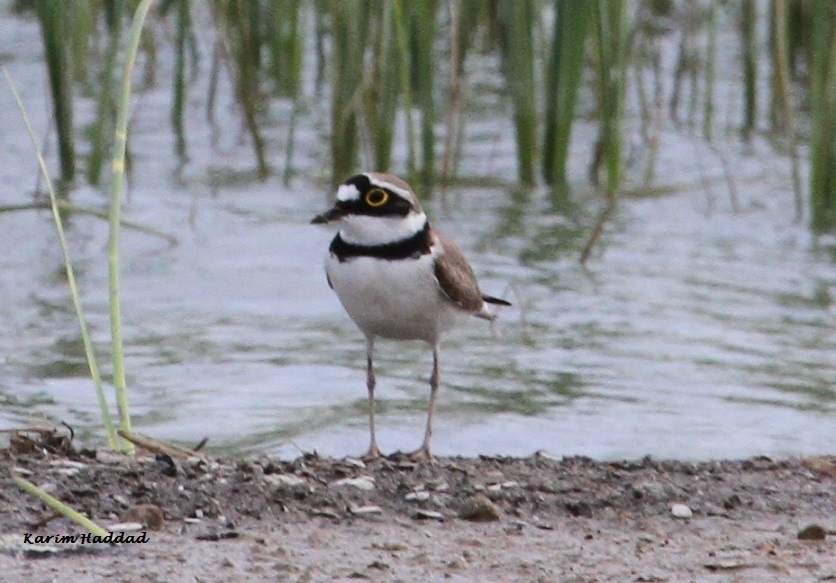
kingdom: Animalia
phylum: Chordata
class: Aves
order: Charadriiformes
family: Charadriidae
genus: Charadrius
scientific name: Charadrius dubius
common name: Little ringed plover
